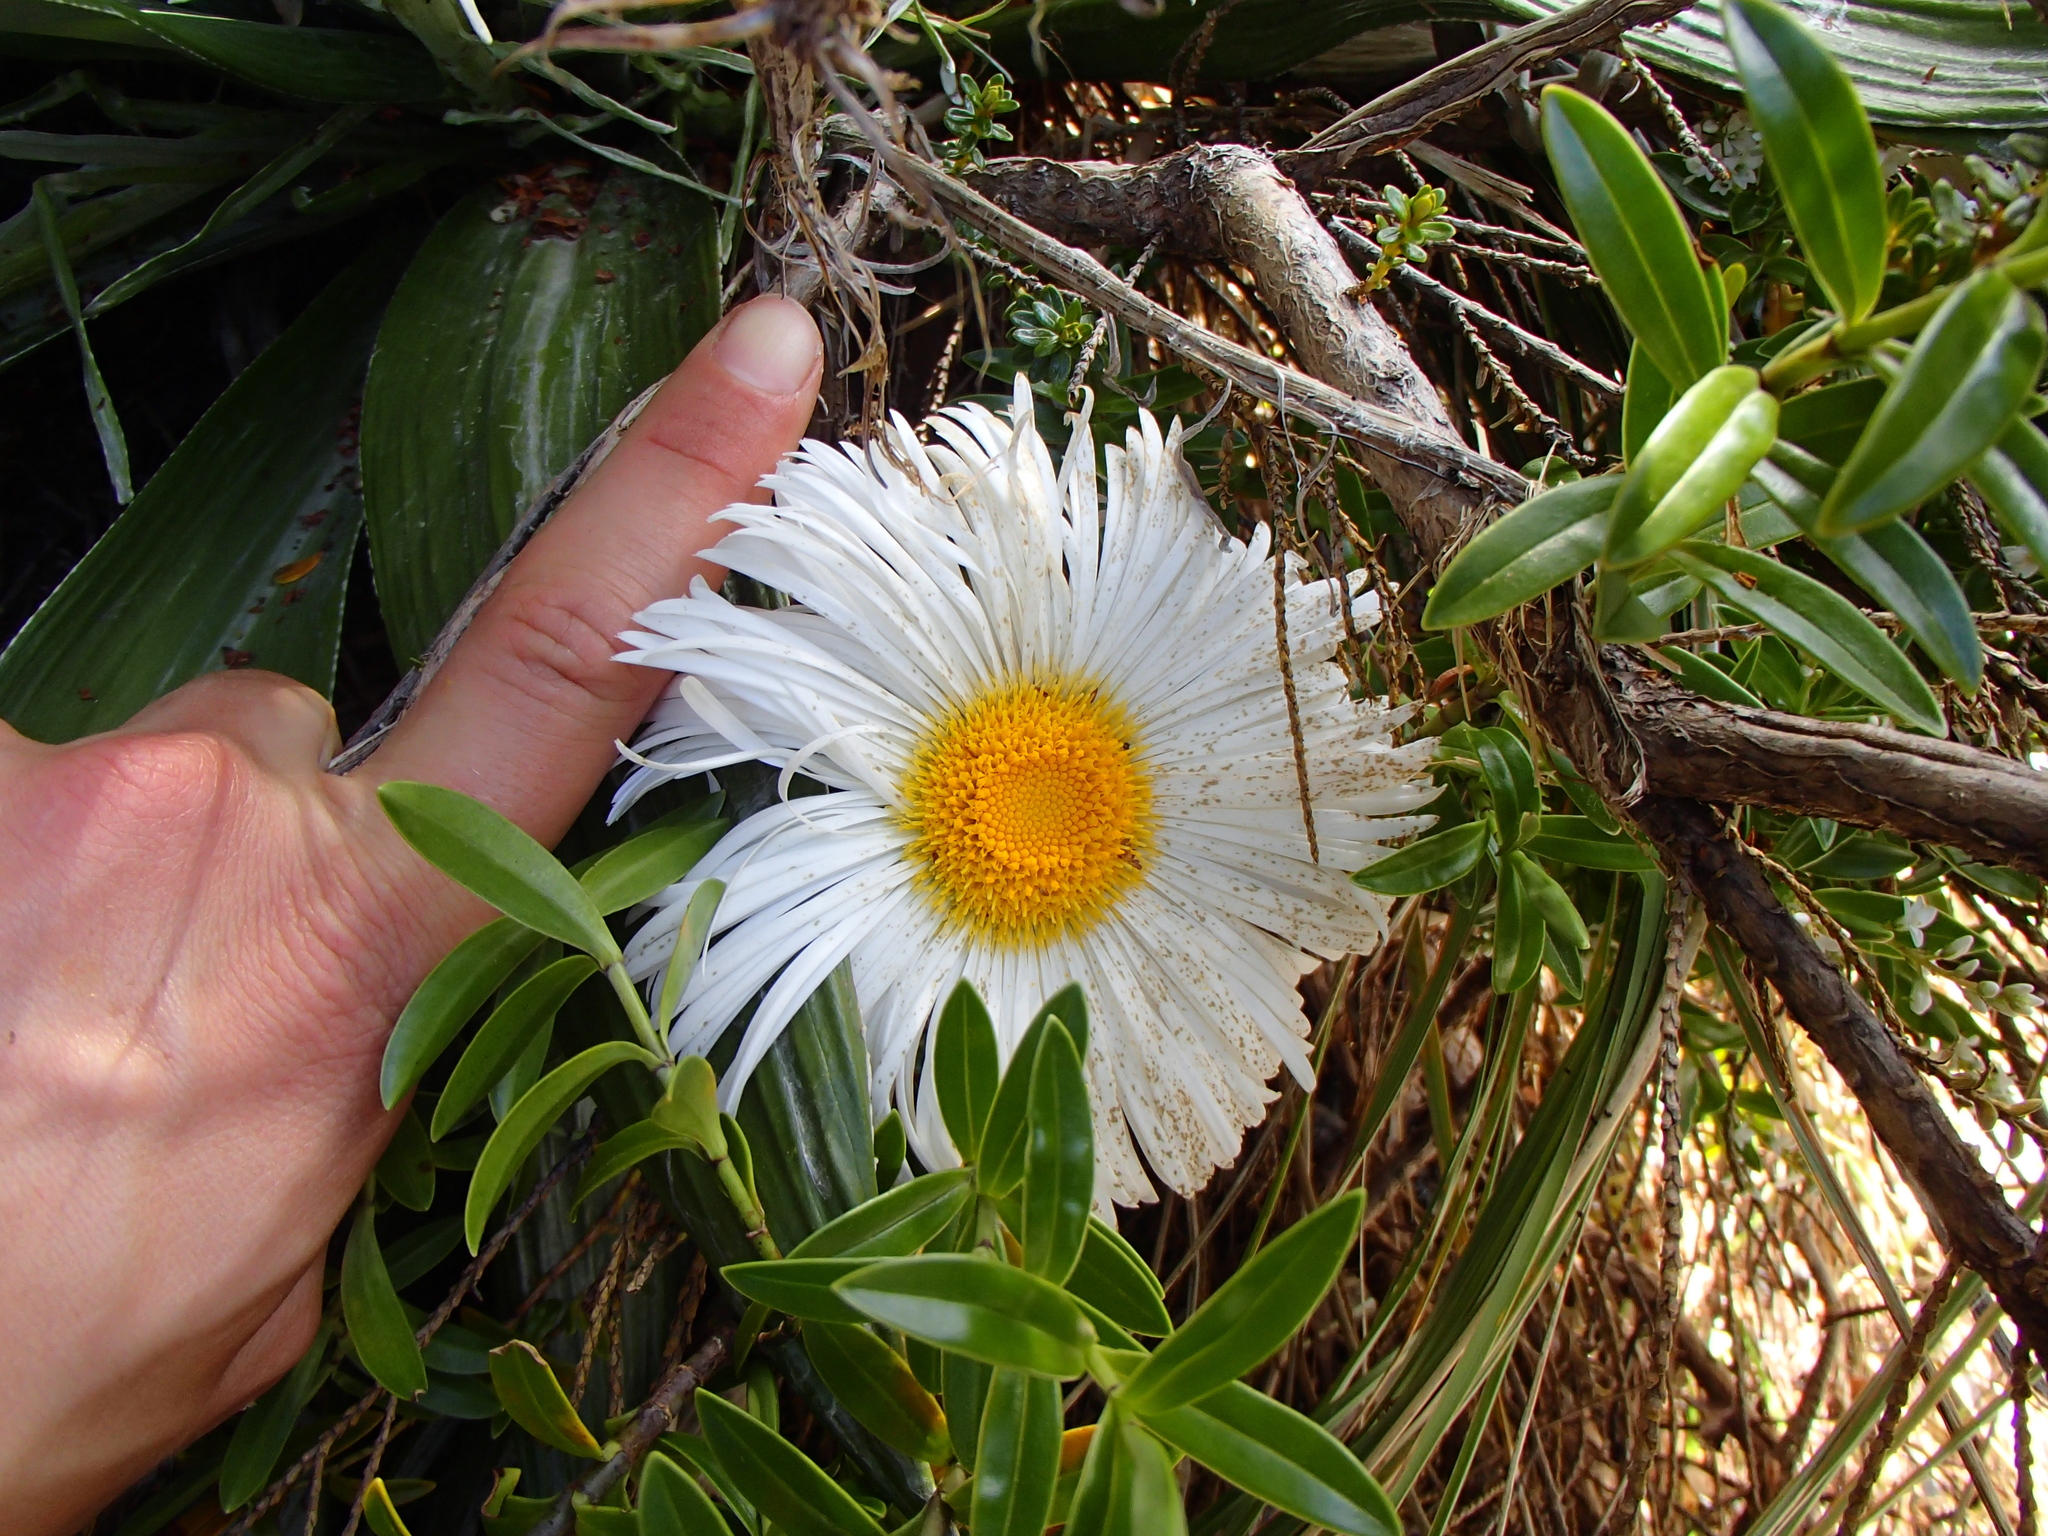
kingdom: Plantae
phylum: Tracheophyta
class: Magnoliopsida
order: Asterales
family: Asteraceae
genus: Celmisia
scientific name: Celmisia semicordata
